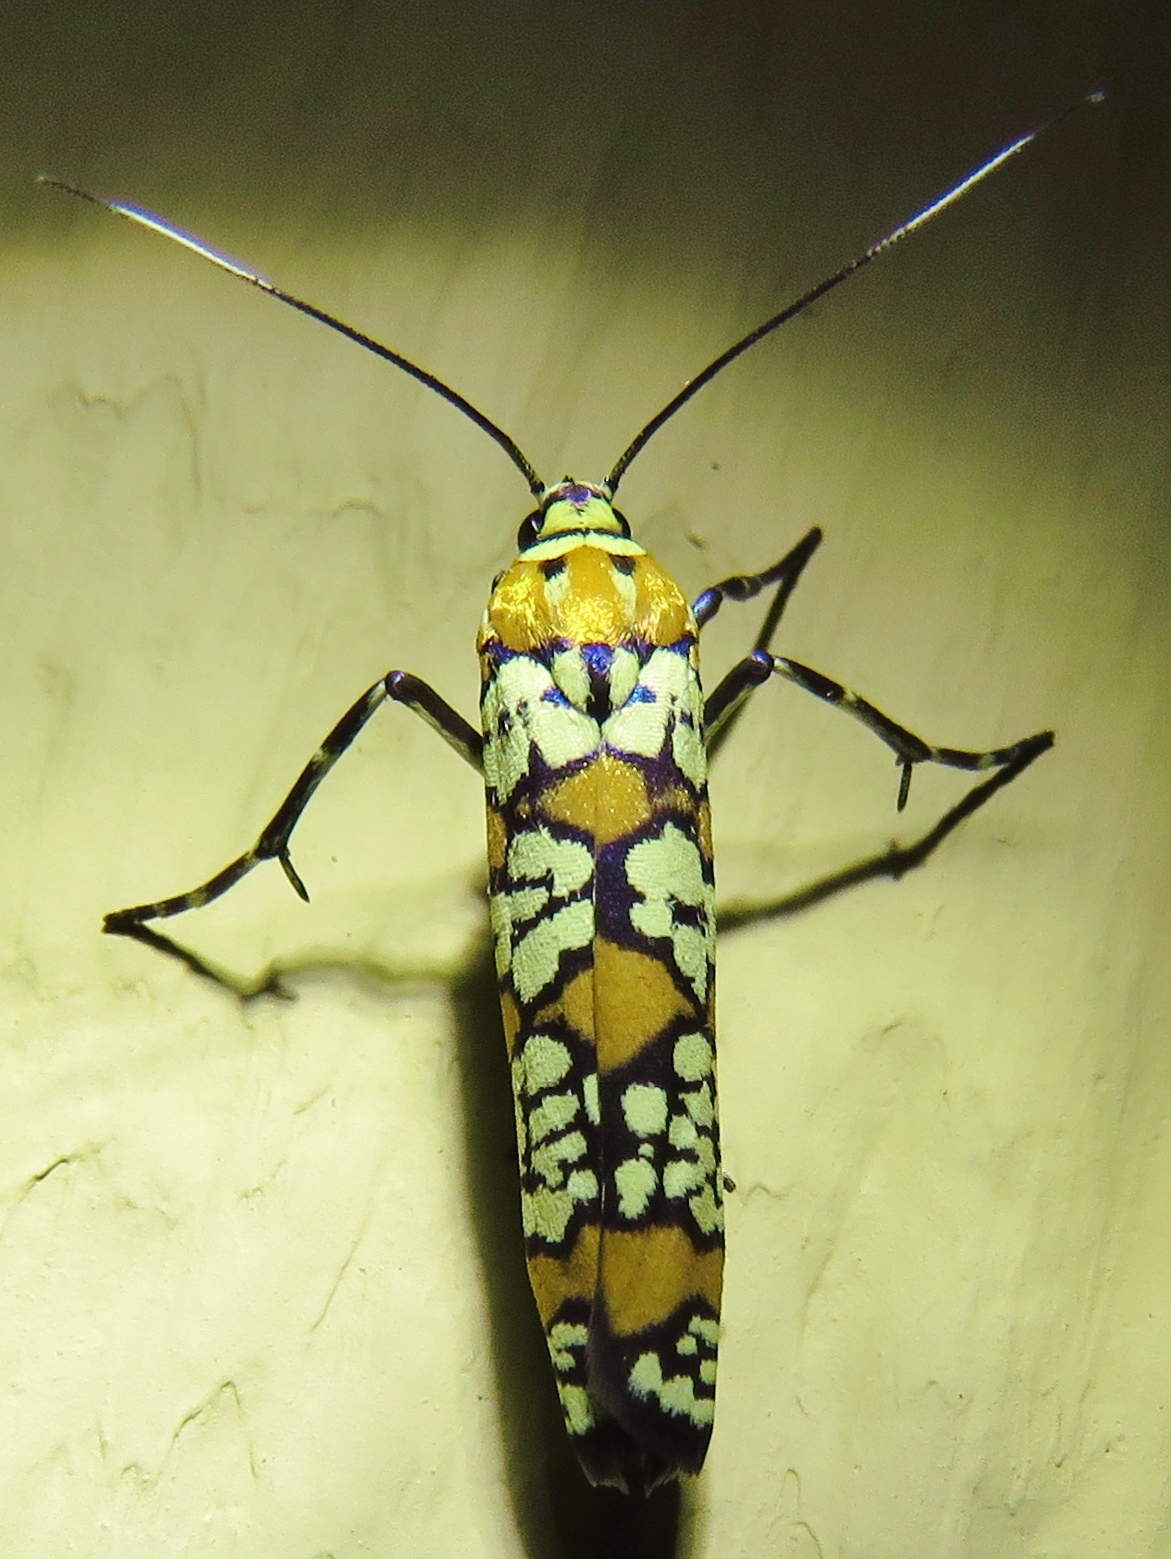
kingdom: Animalia
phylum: Arthropoda
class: Insecta
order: Lepidoptera
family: Attevidae
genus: Atteva
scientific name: Atteva punctella
